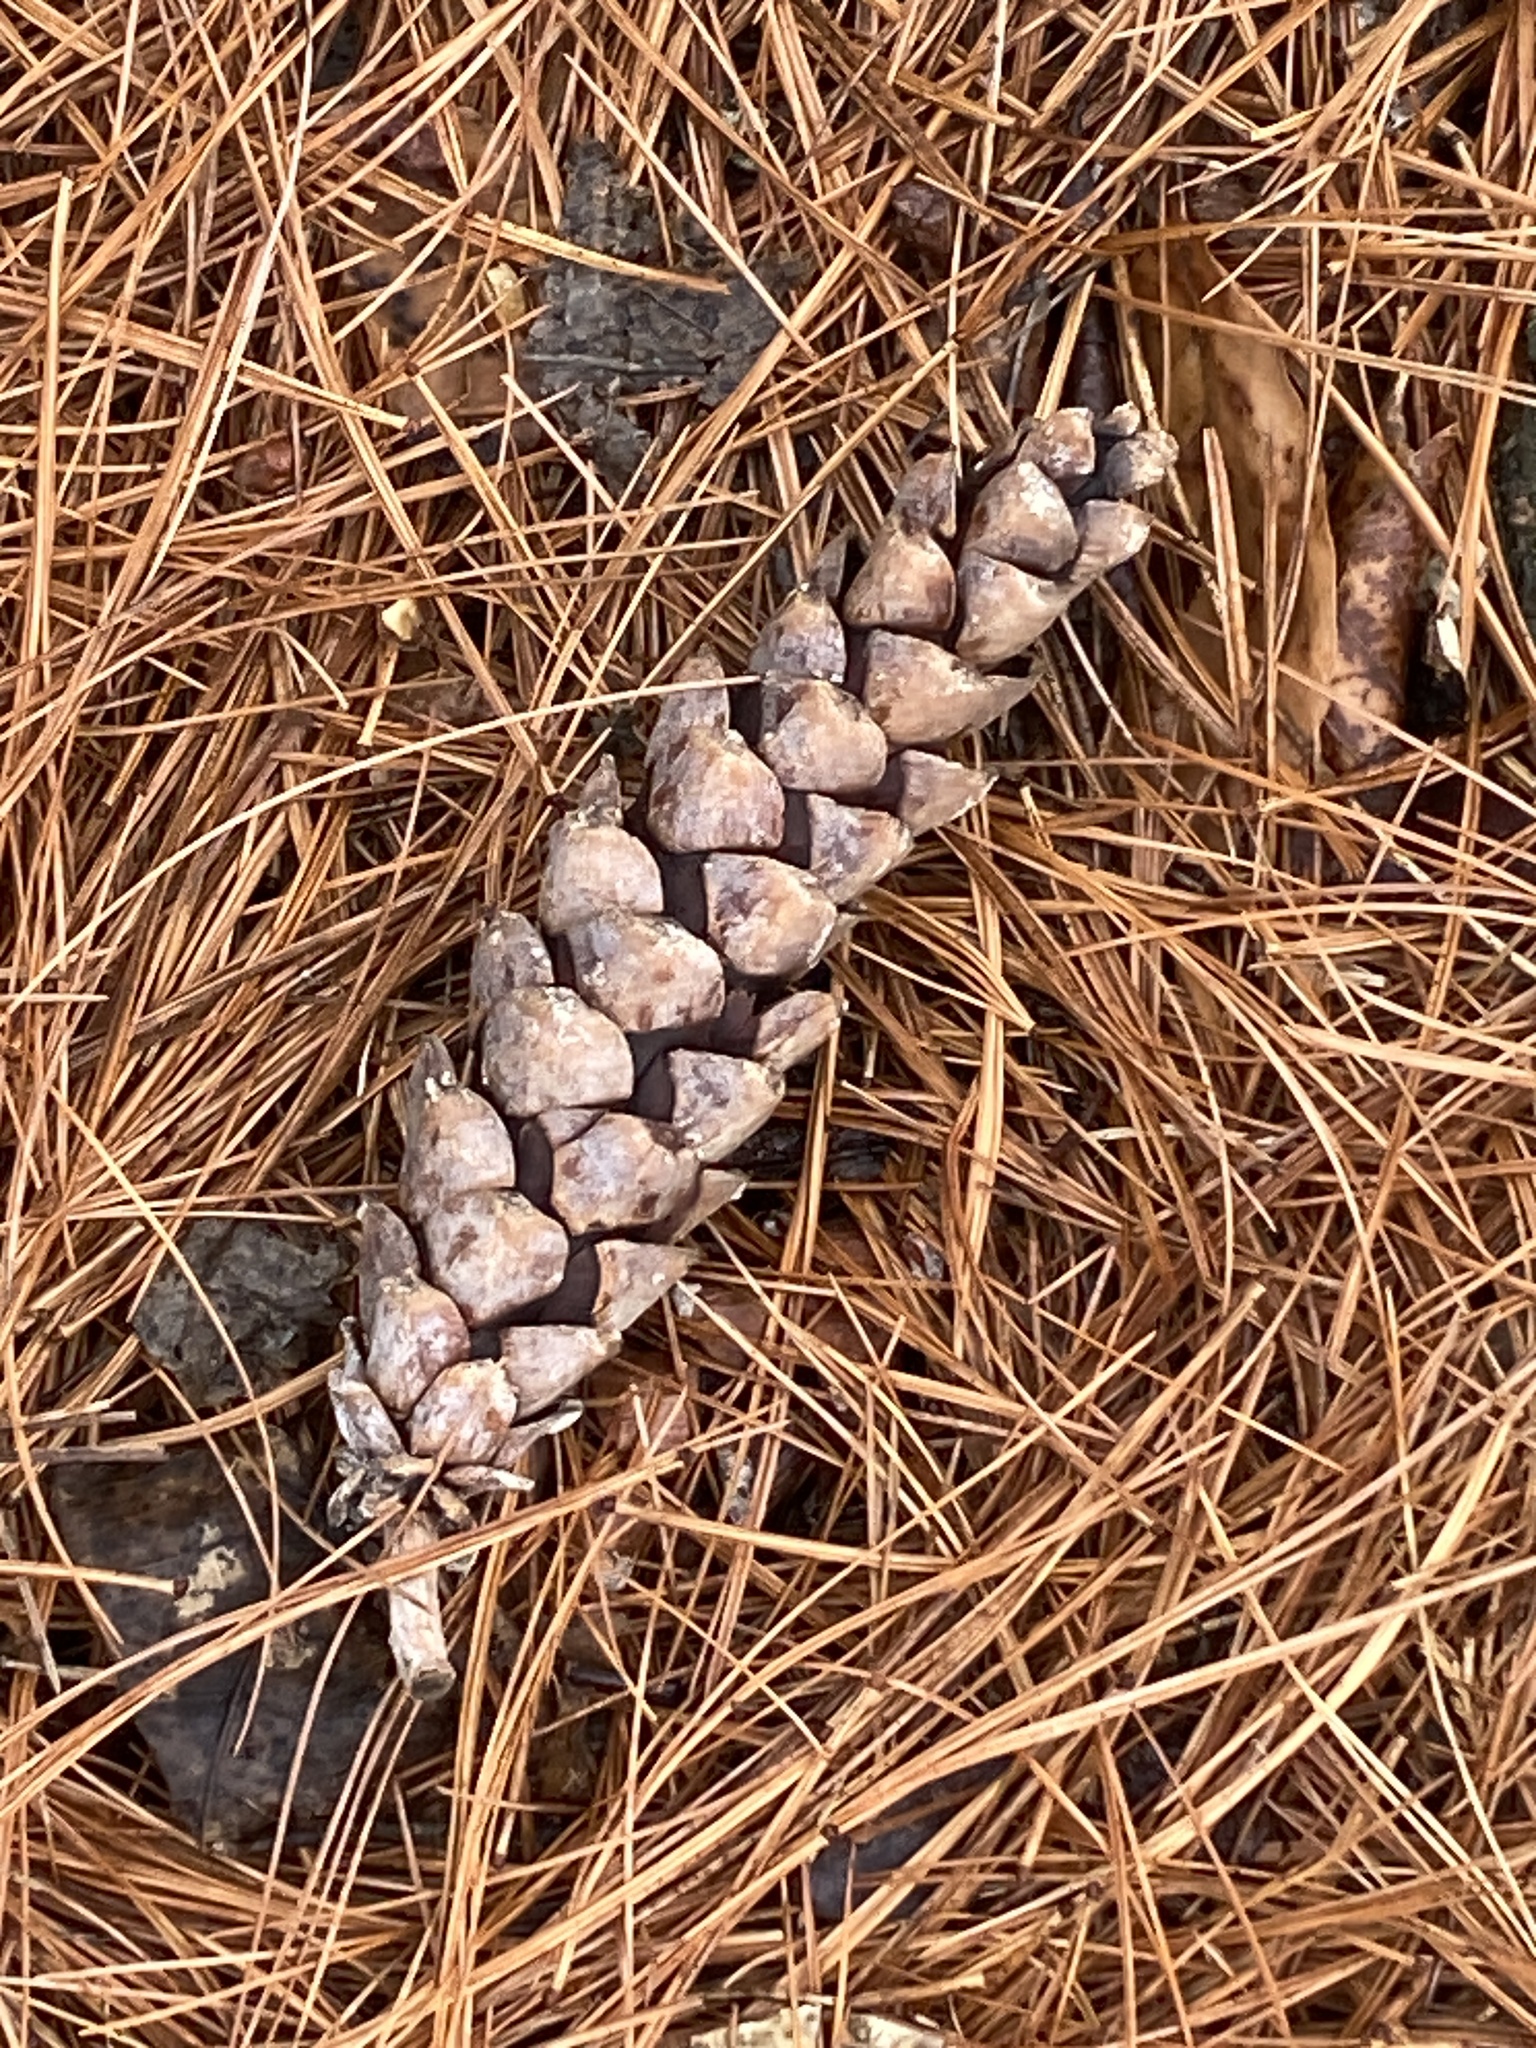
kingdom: Plantae
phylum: Tracheophyta
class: Pinopsida
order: Pinales
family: Pinaceae
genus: Pinus
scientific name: Pinus strobus
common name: Weymouth pine
